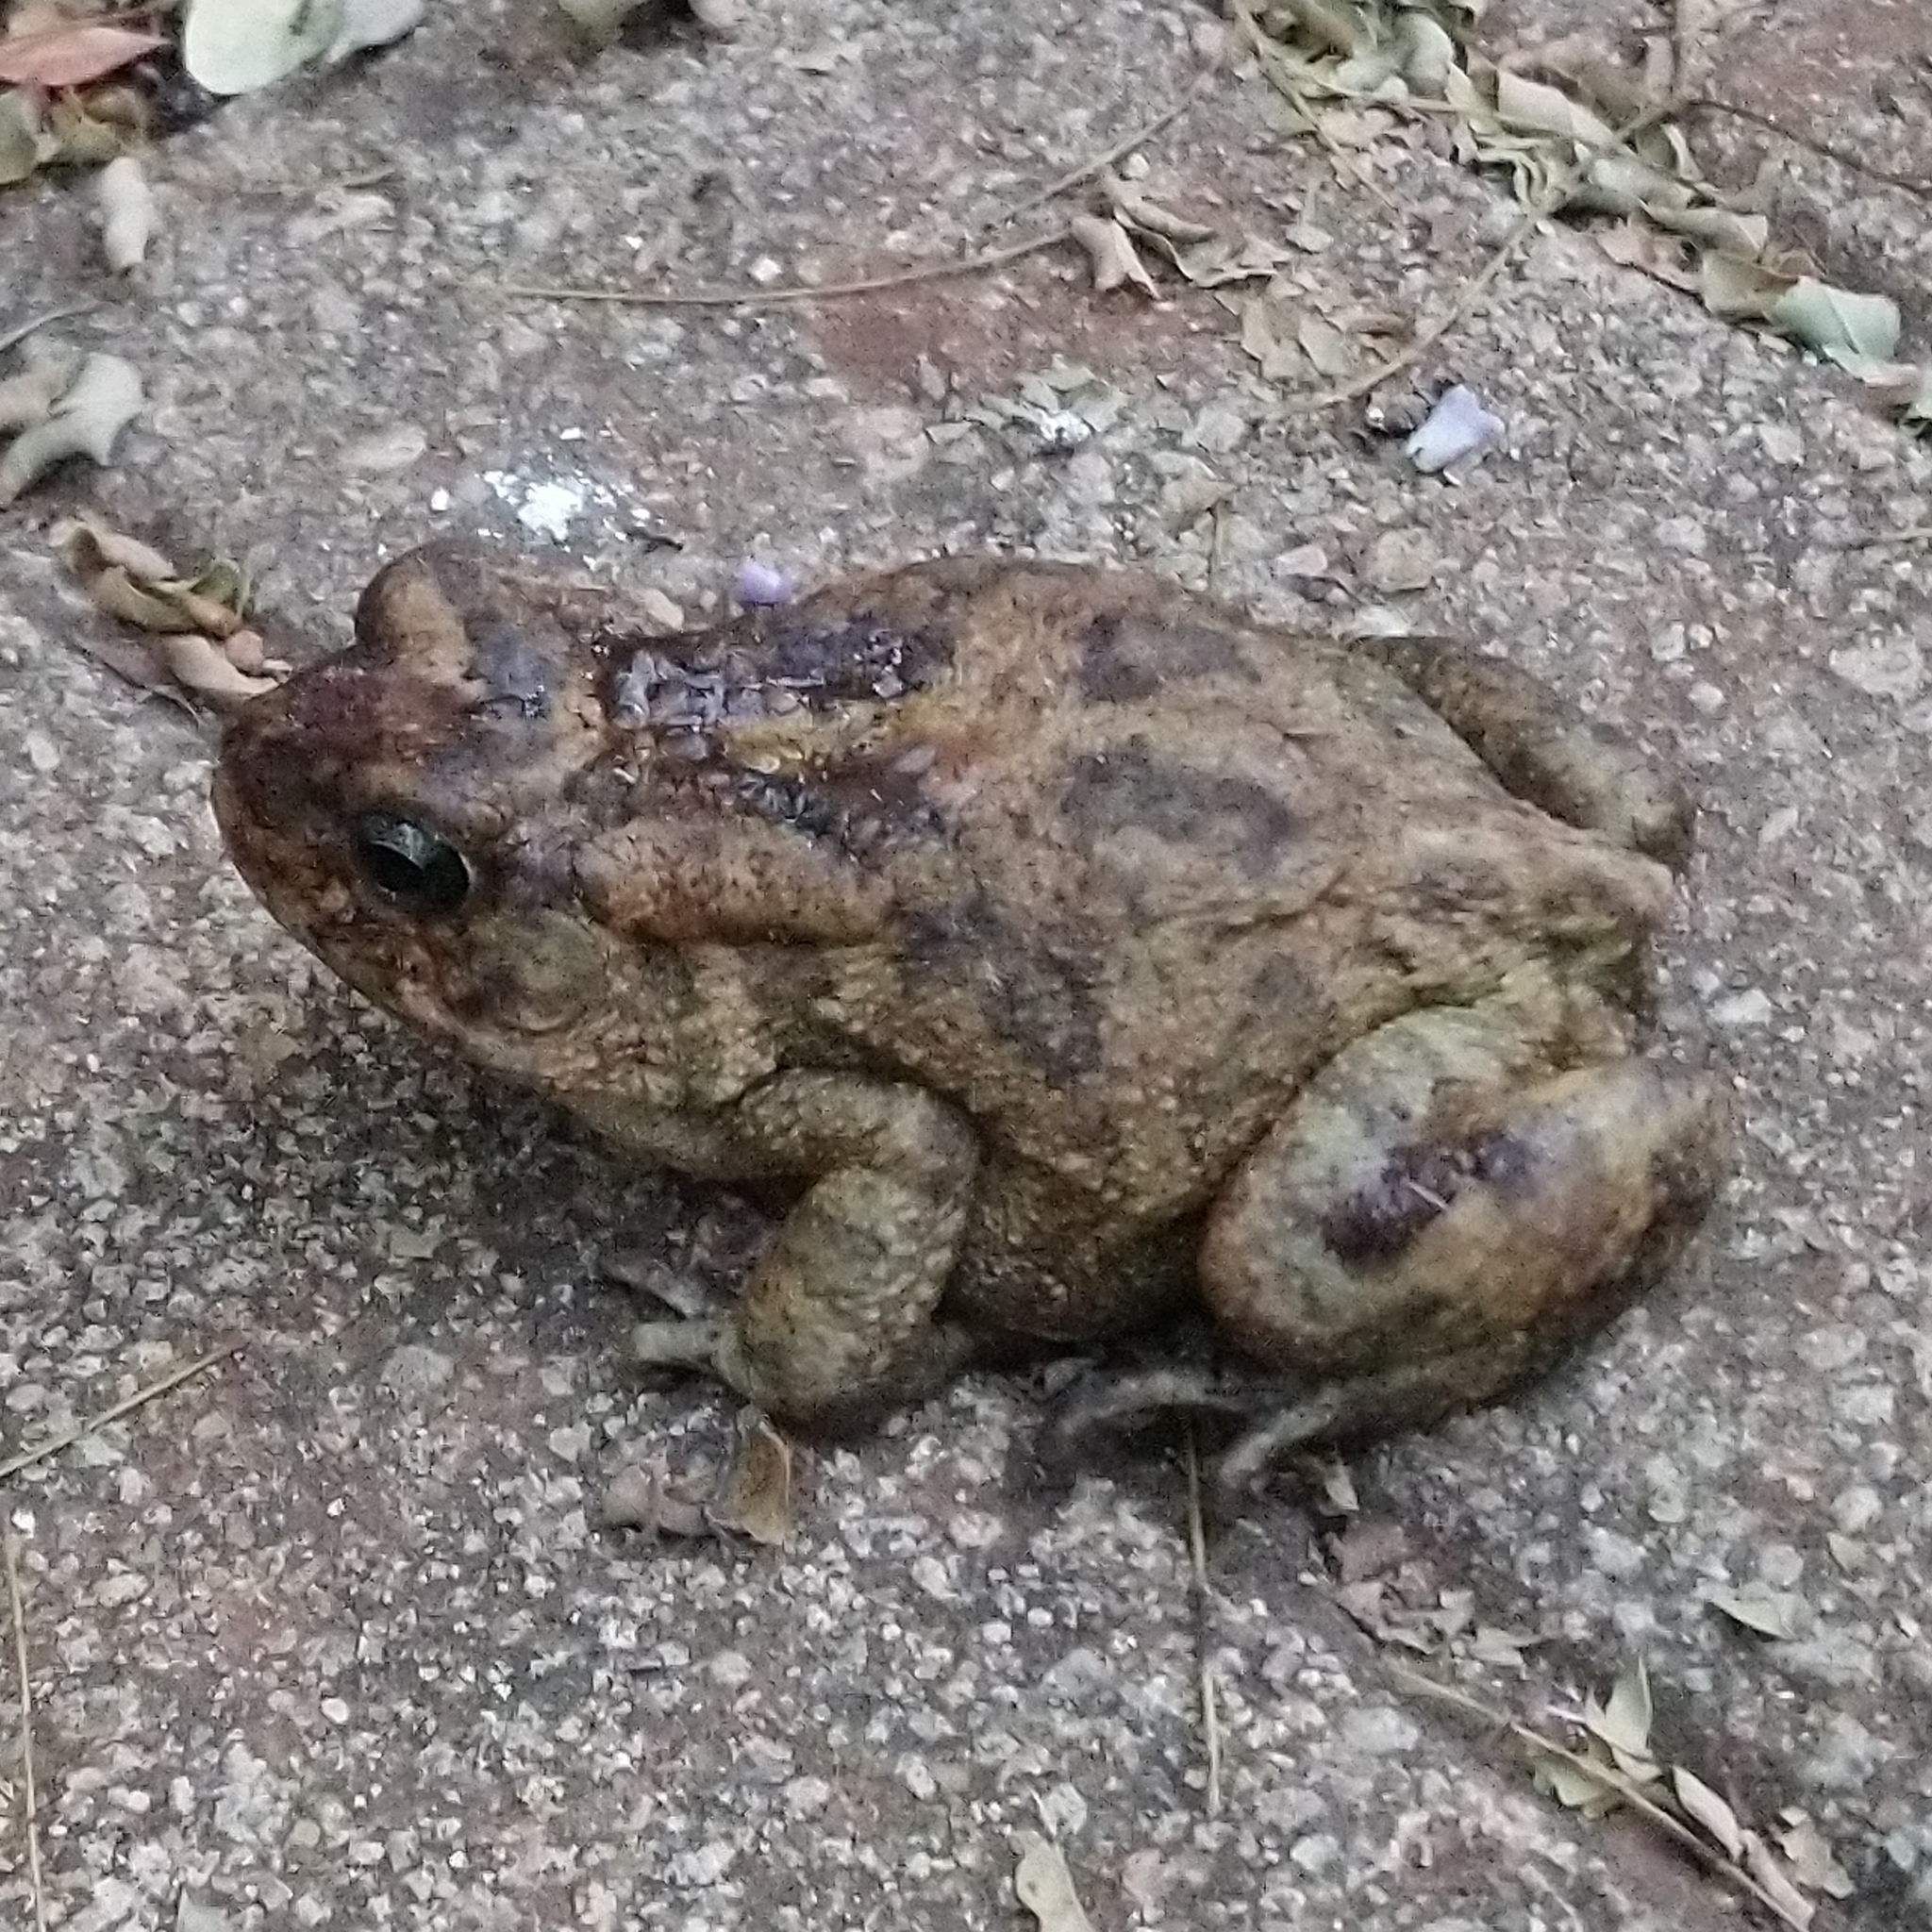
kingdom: Animalia
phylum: Chordata
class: Amphibia
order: Anura
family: Bufonidae
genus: Sclerophrys
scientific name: Sclerophrys gutturalis
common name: African common toad
